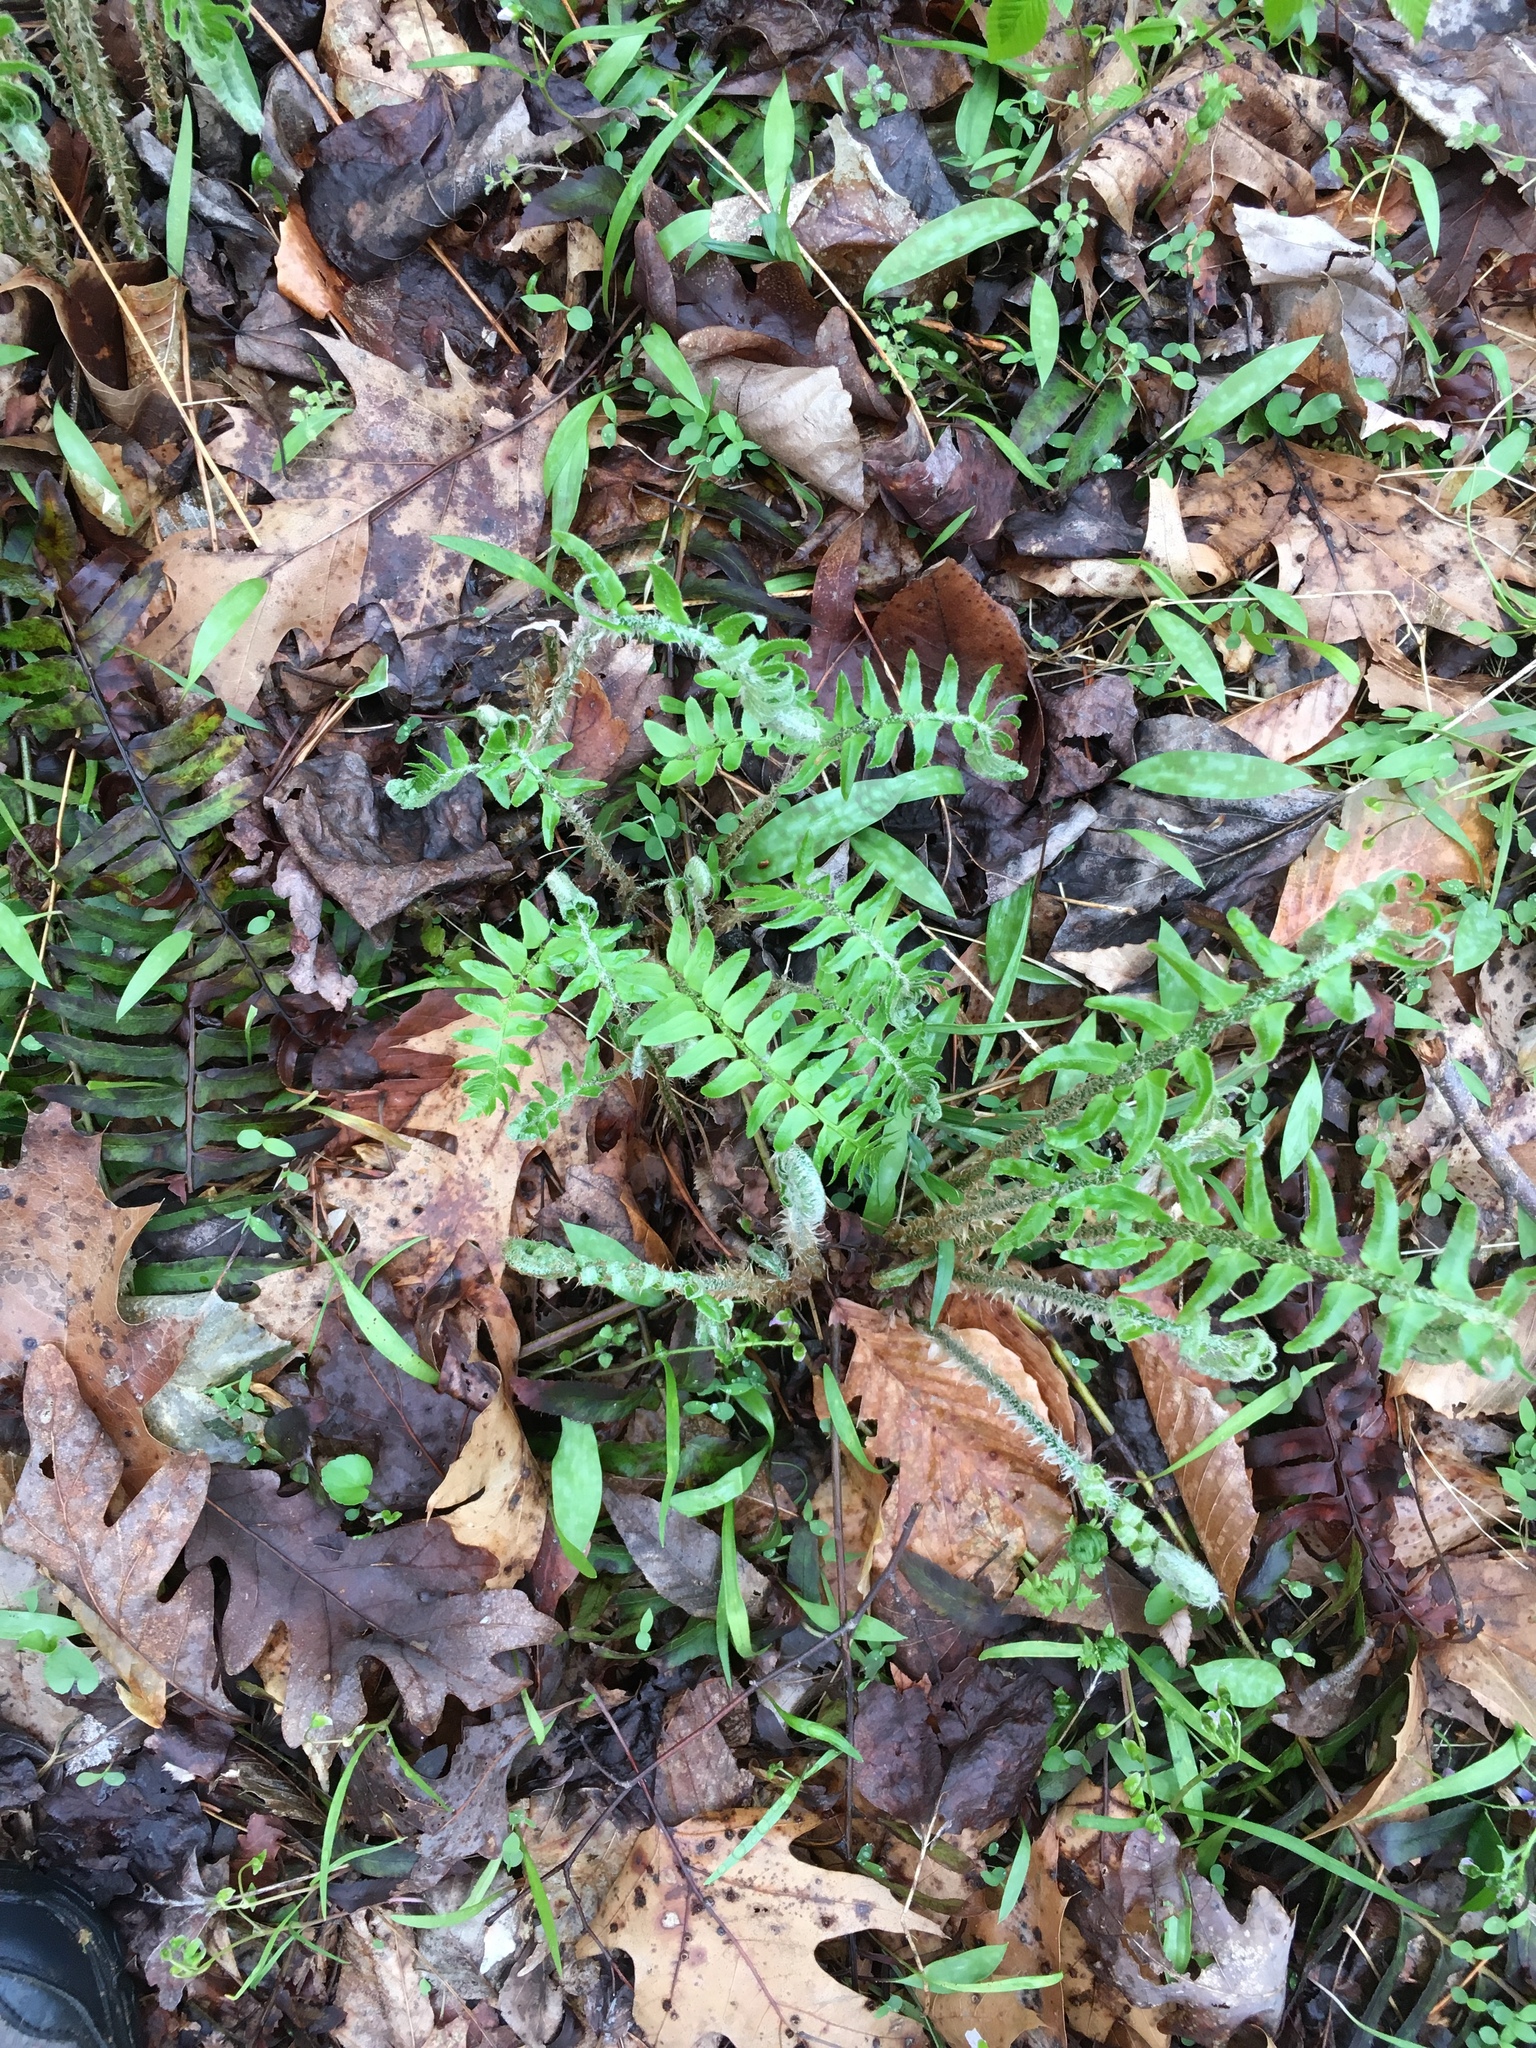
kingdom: Plantae
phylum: Tracheophyta
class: Polypodiopsida
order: Polypodiales
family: Dryopteridaceae
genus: Polystichum
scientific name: Polystichum acrostichoides
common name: Christmas fern
